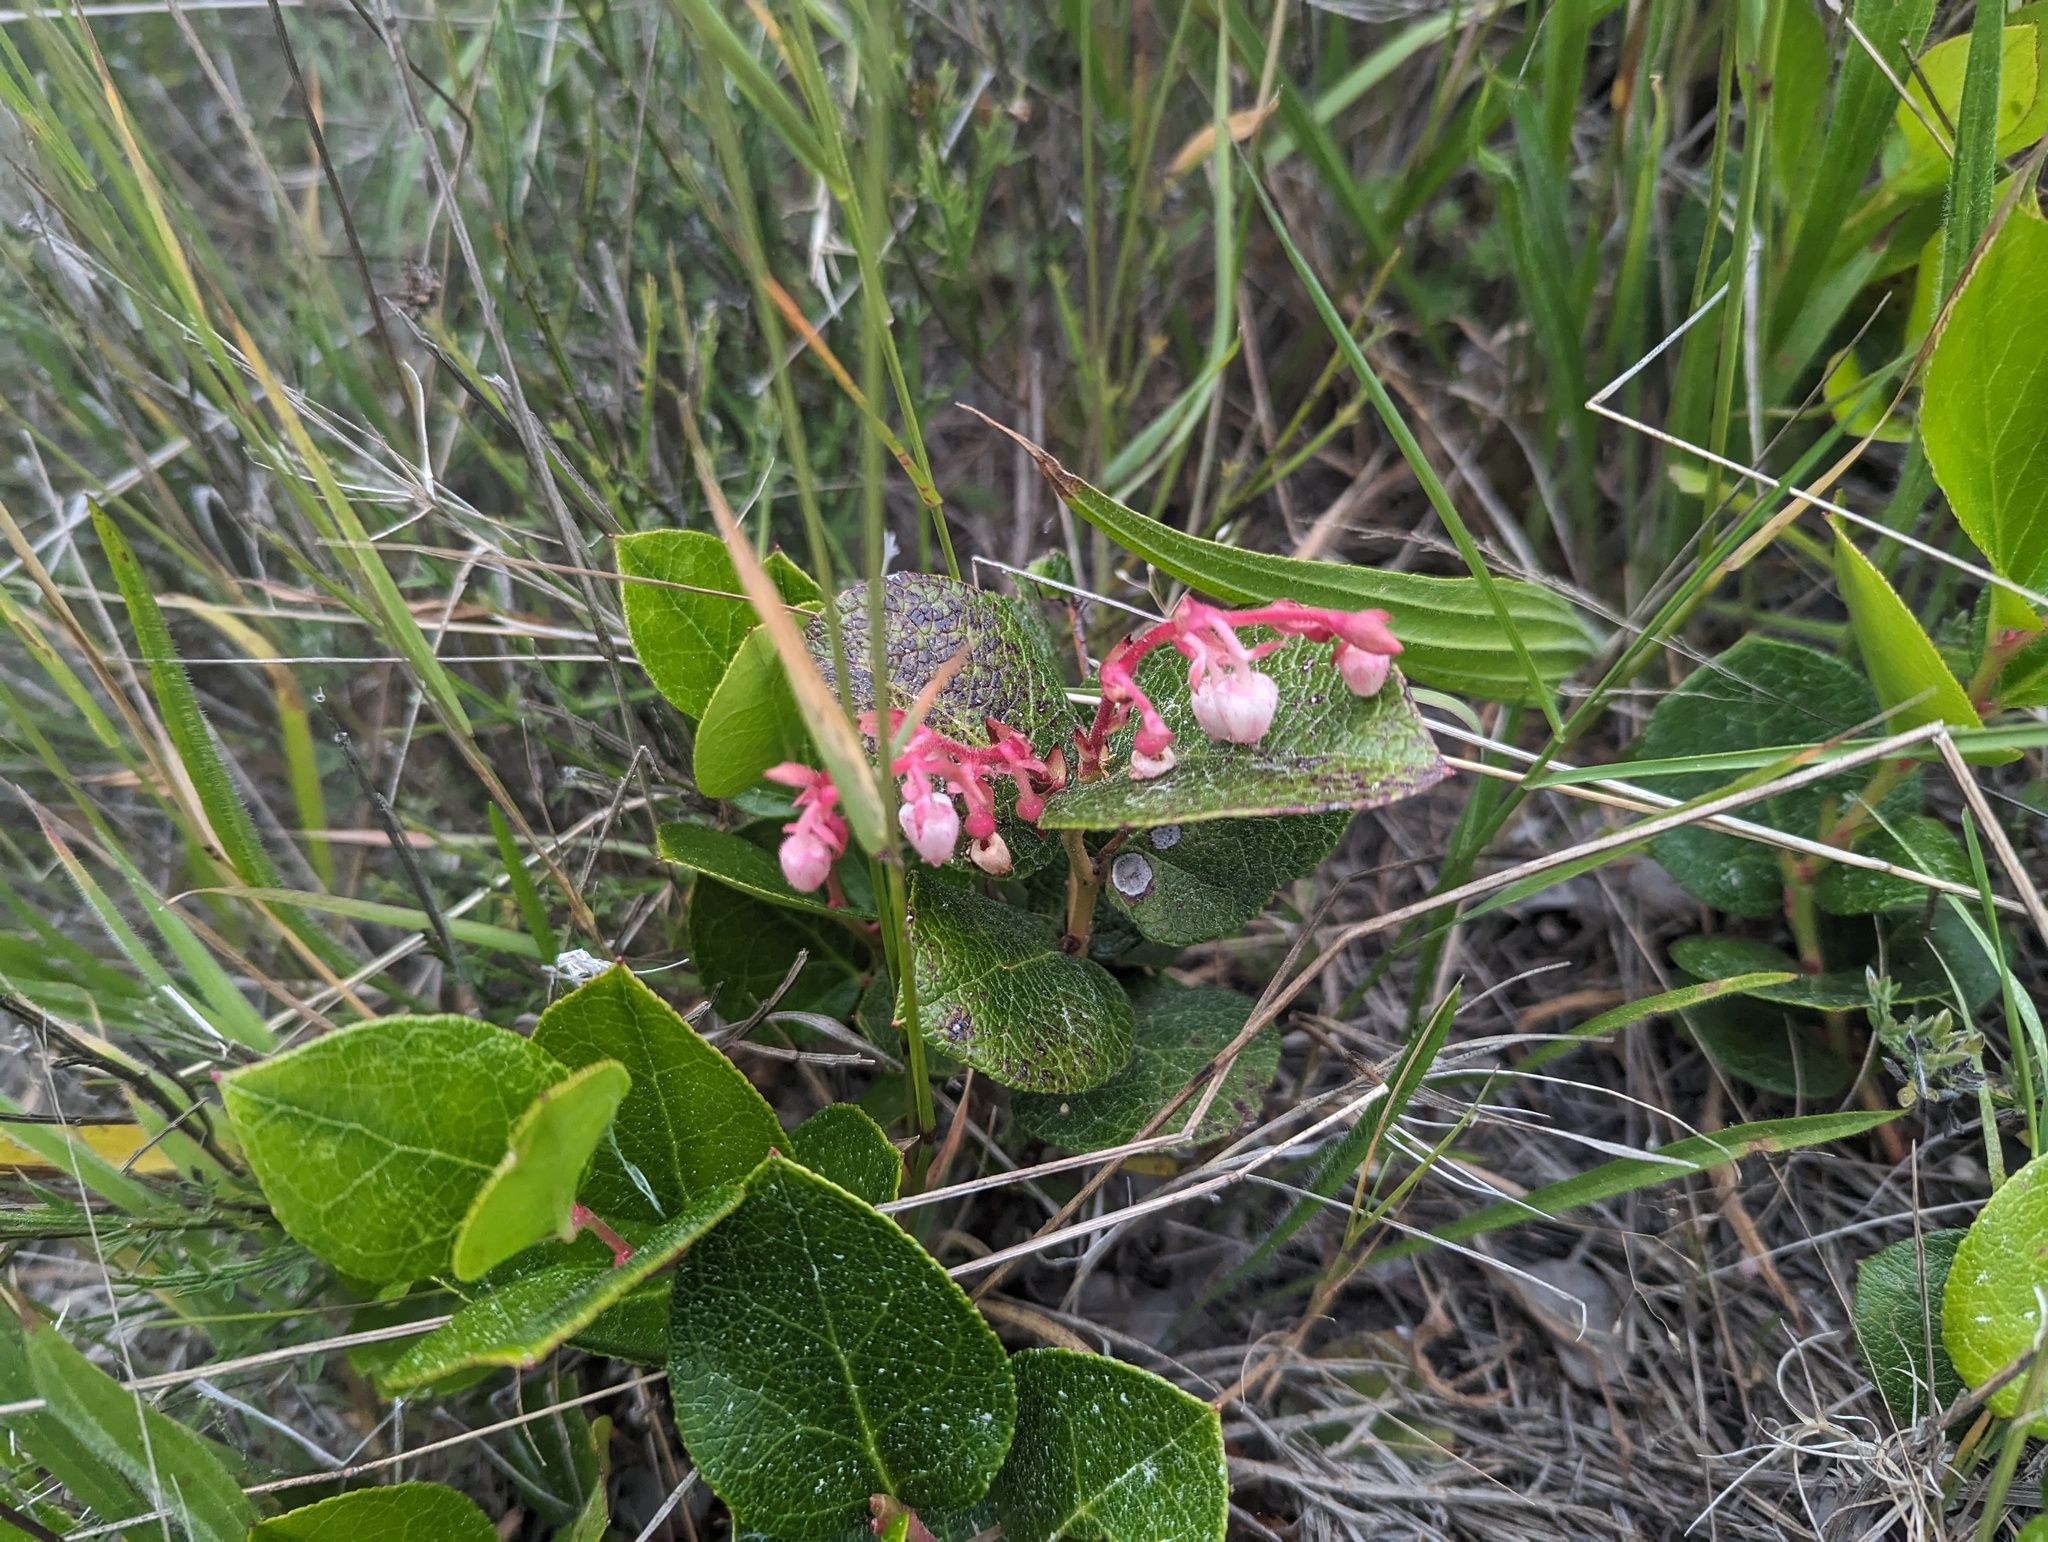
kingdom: Plantae
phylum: Tracheophyta
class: Magnoliopsida
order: Ericales
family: Ericaceae
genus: Gaultheria
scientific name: Gaultheria shallon
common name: Shallon
